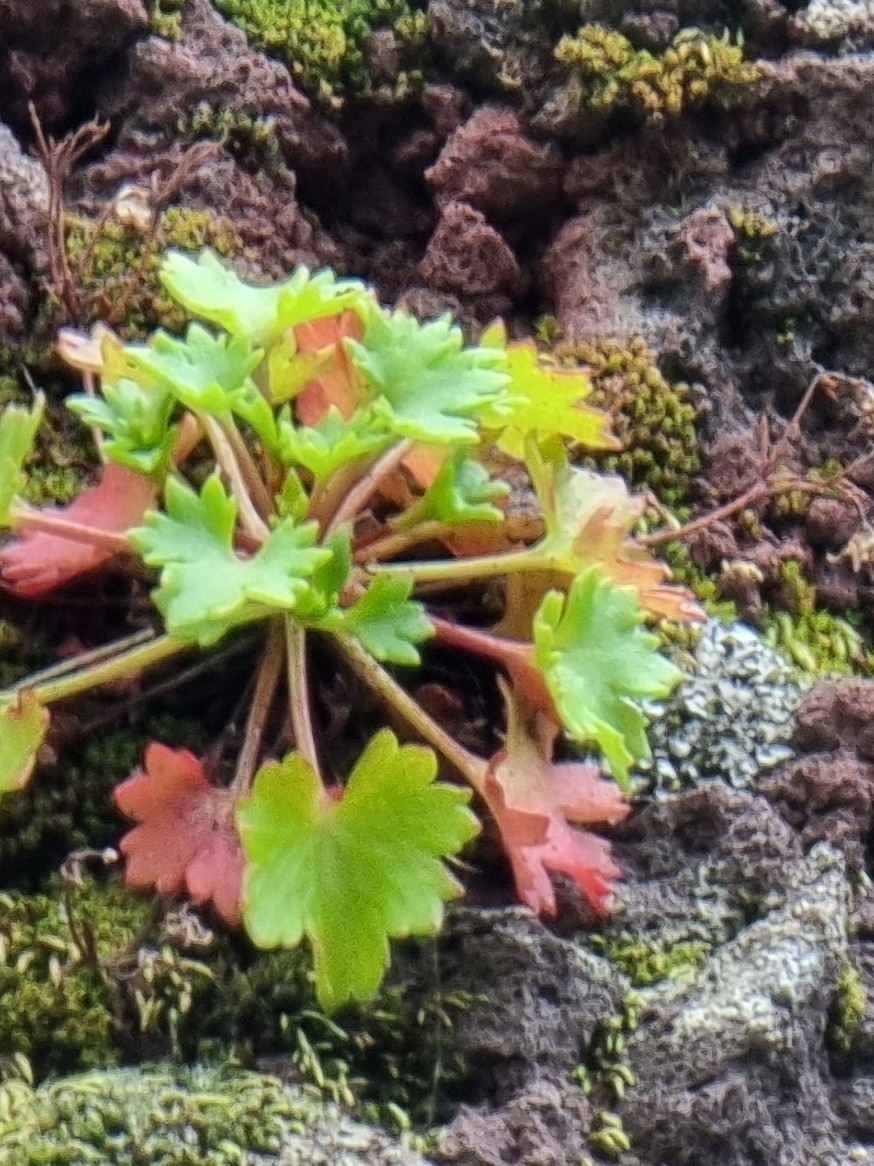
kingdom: Plantae
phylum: Tracheophyta
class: Magnoliopsida
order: Saxifragales
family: Saxifragaceae
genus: Saxifraga
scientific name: Saxifraga maderensis
